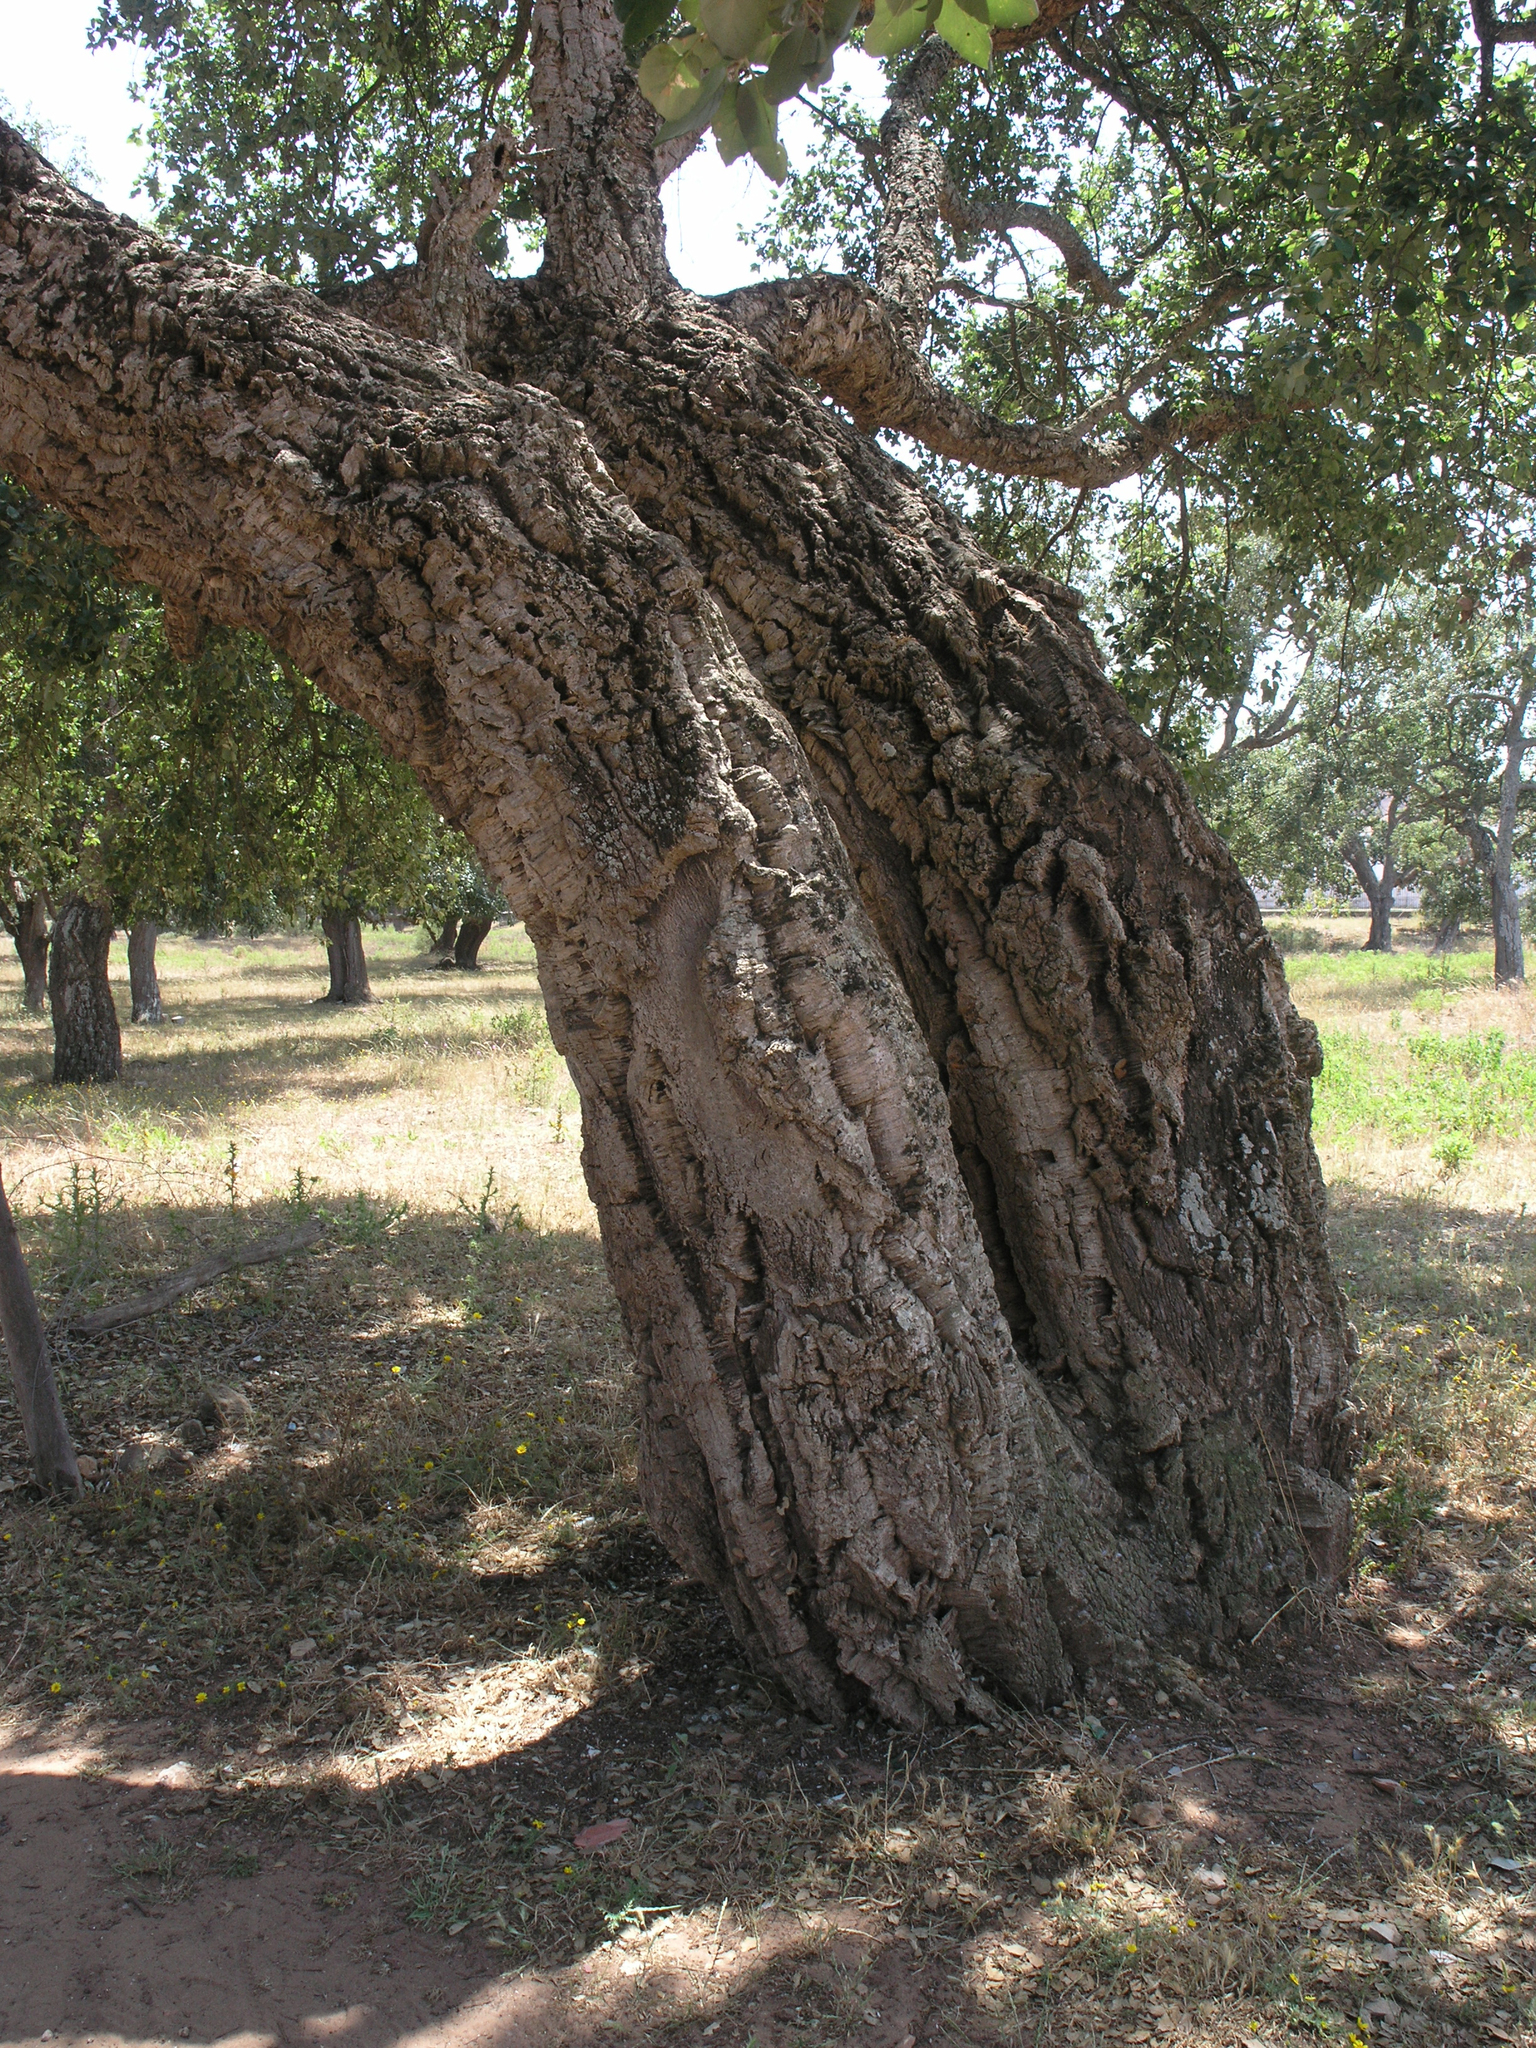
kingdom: Plantae
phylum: Tracheophyta
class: Magnoliopsida
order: Fagales
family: Fagaceae
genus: Quercus
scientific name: Quercus suber
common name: Cork oak
